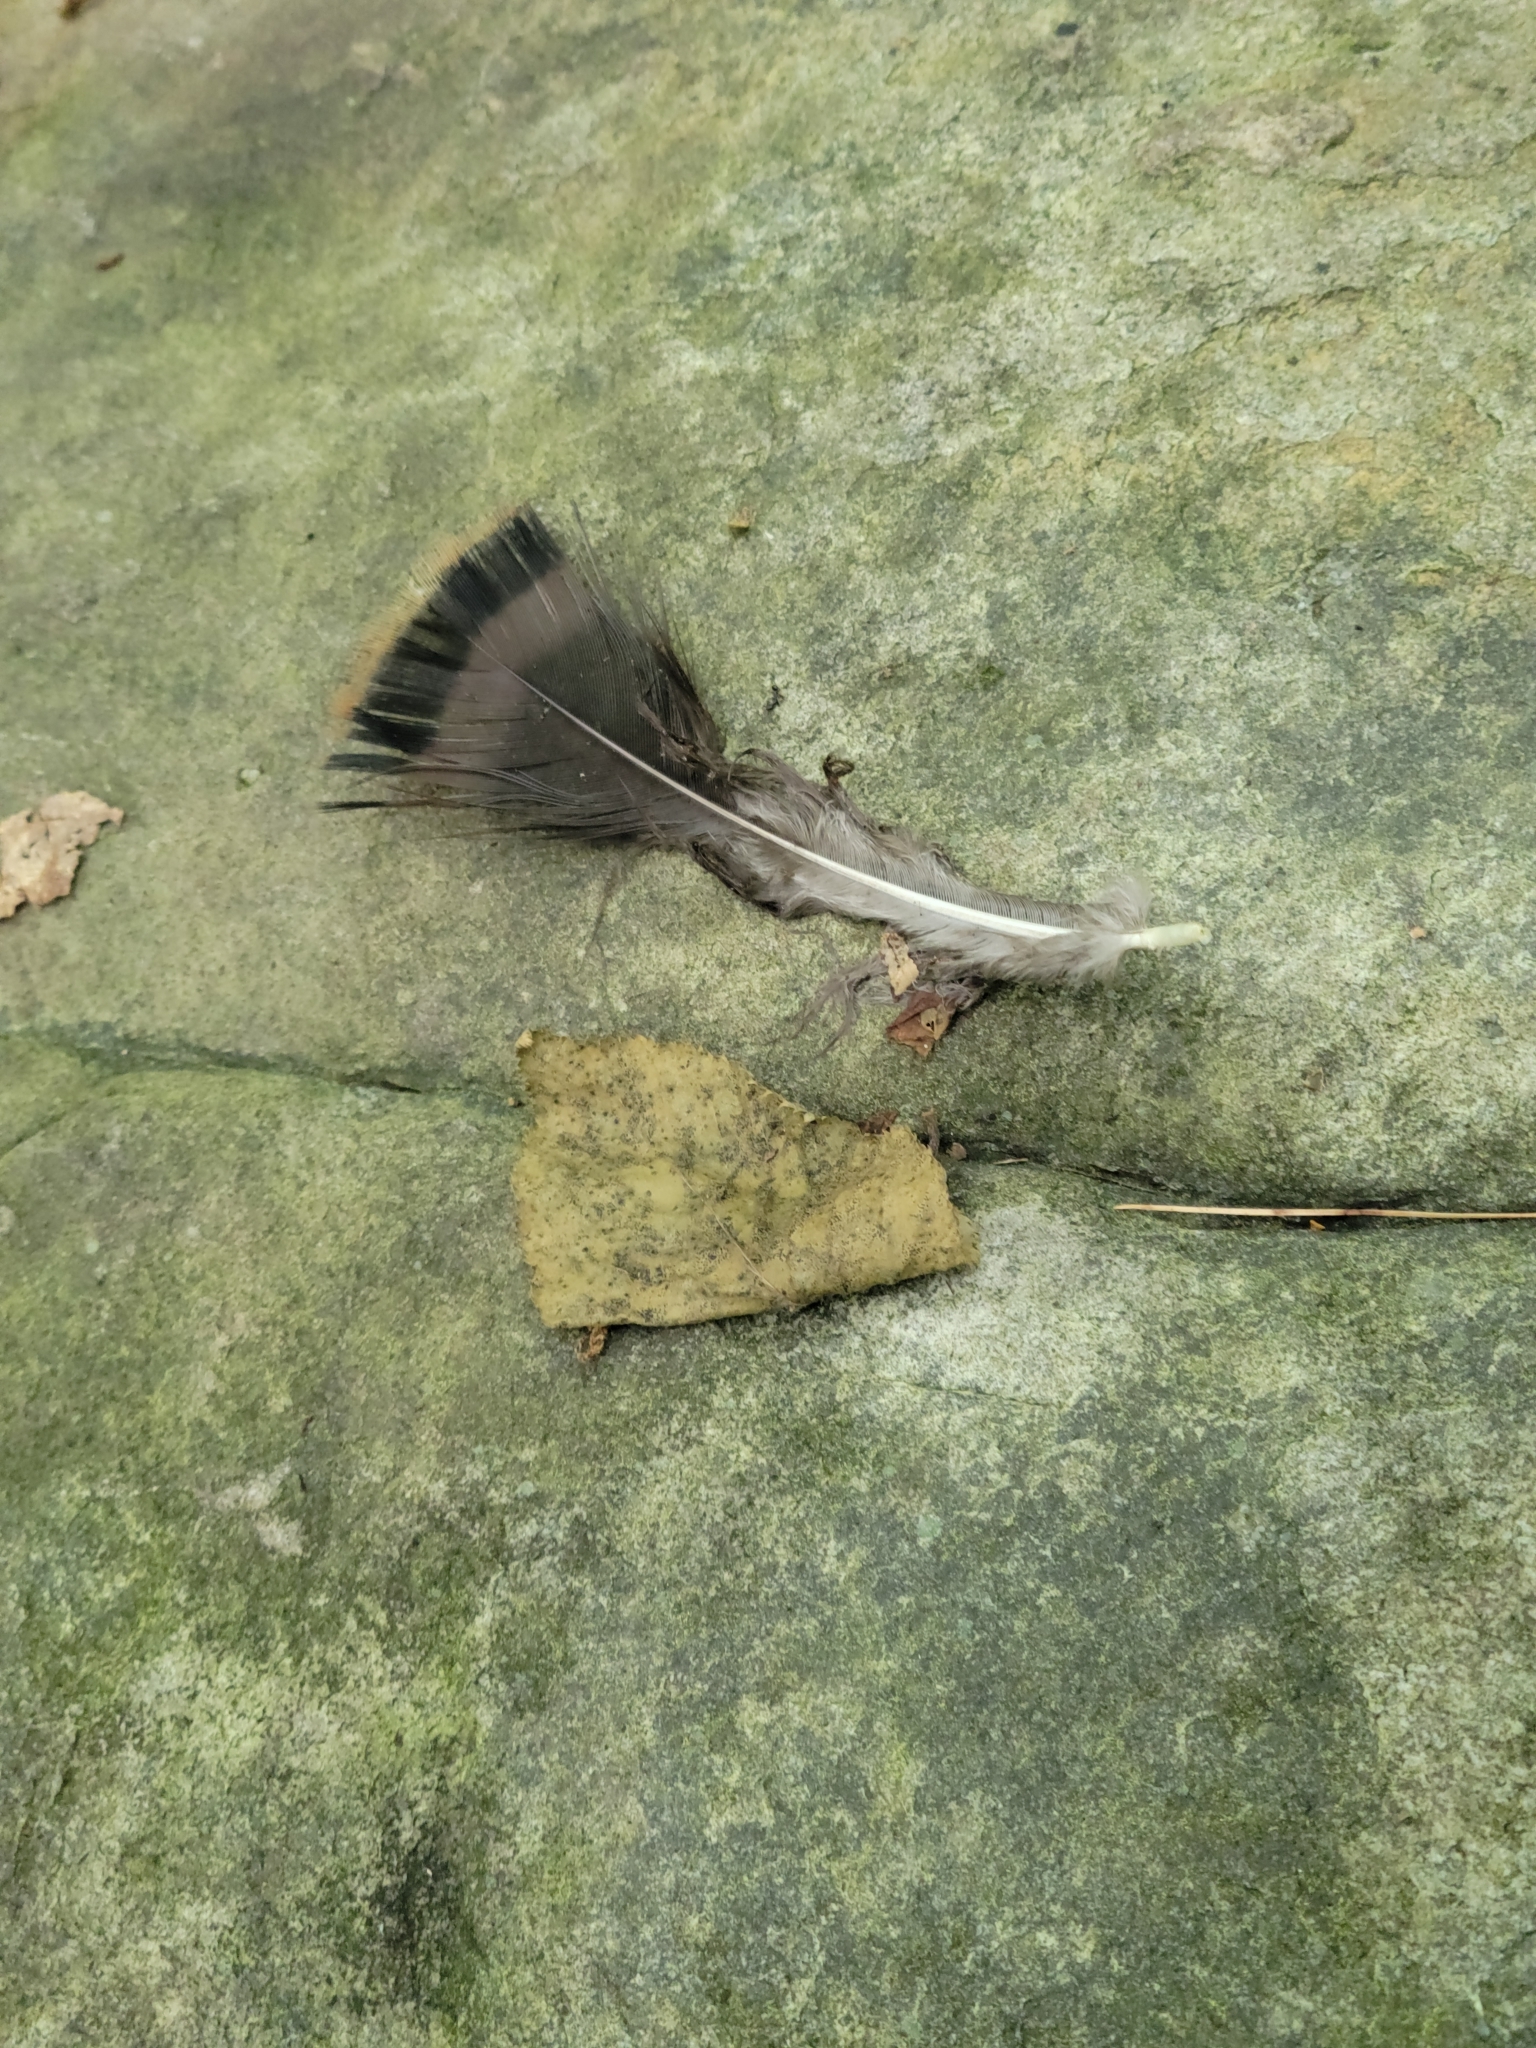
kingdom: Animalia
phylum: Chordata
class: Aves
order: Galliformes
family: Phasianidae
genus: Meleagris
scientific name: Meleagris gallopavo
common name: Wild turkey
